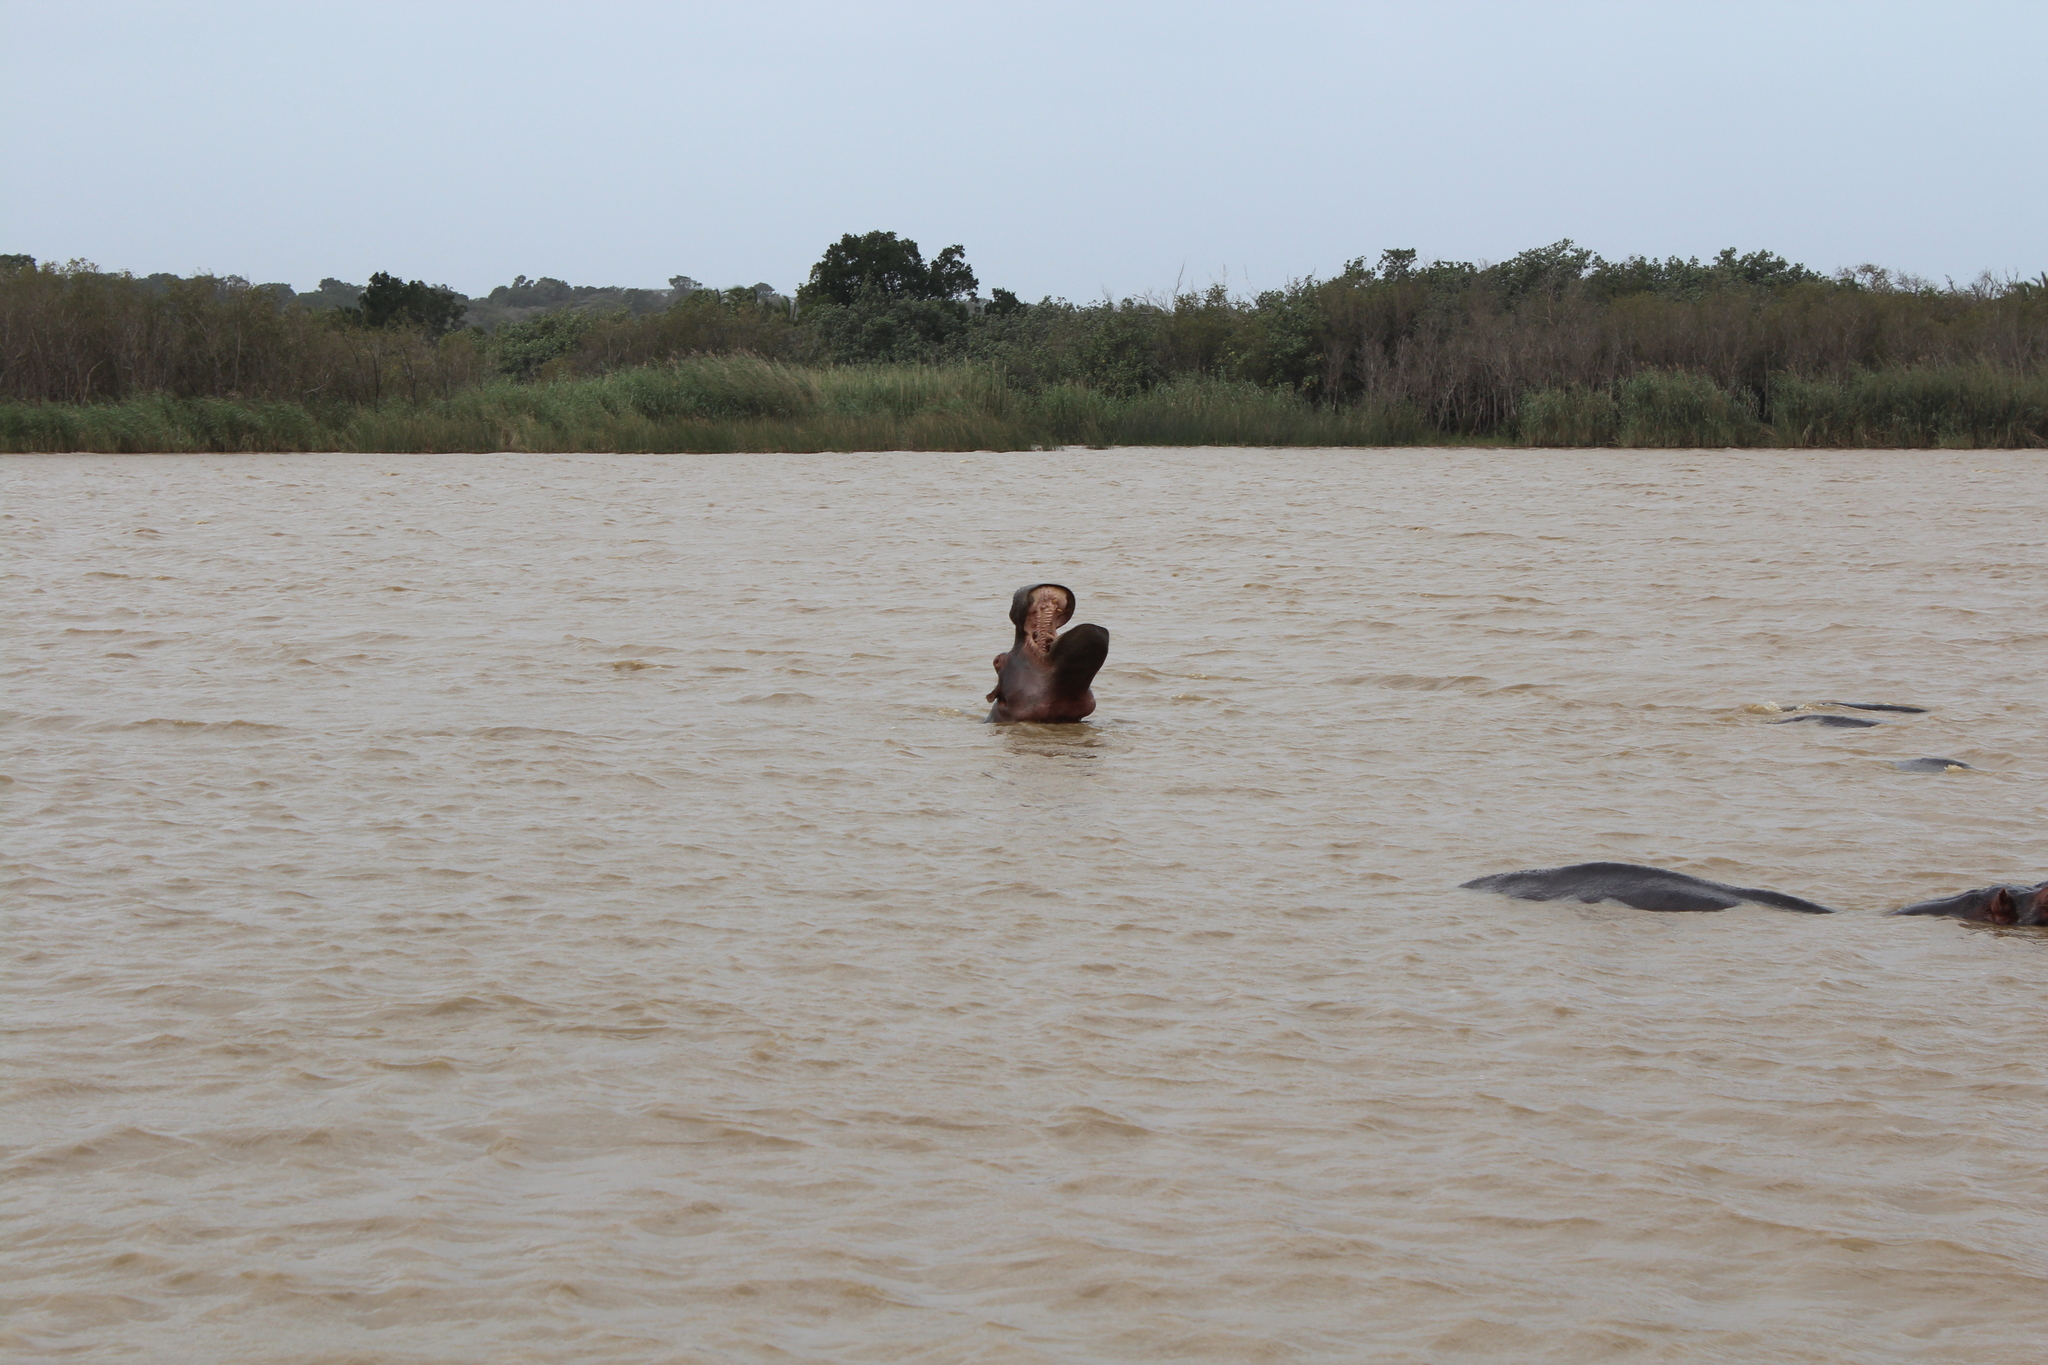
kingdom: Animalia
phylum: Chordata
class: Mammalia
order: Artiodactyla
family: Hippopotamidae
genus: Hippopotamus
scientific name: Hippopotamus amphibius
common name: Common hippopotamus
